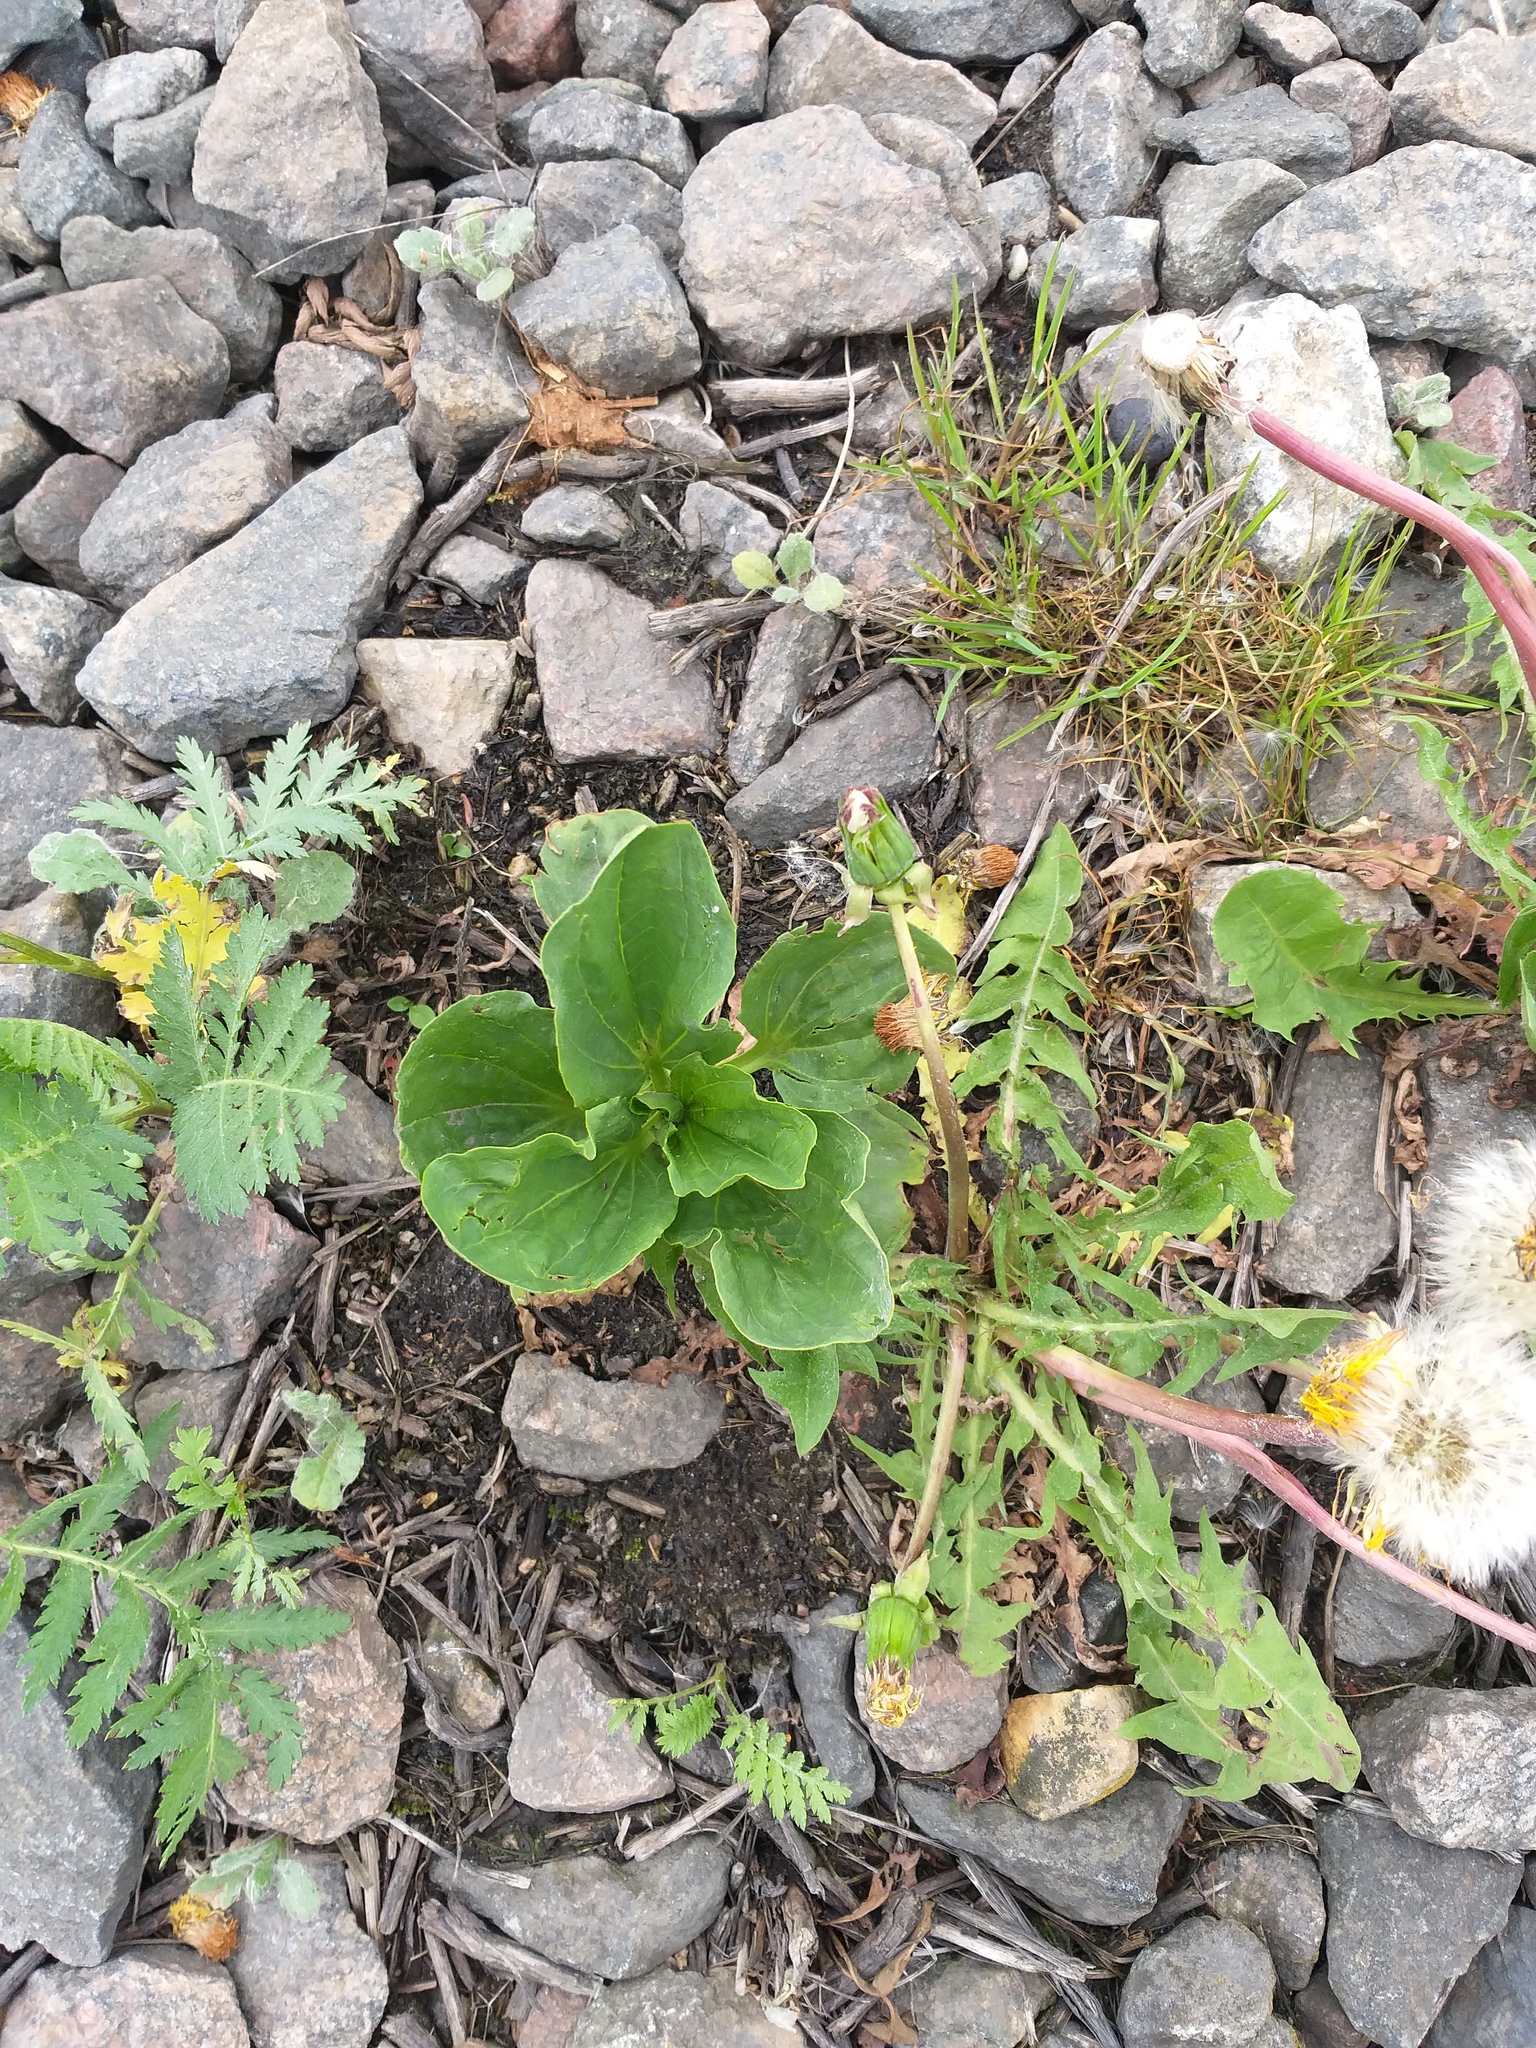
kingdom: Plantae
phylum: Tracheophyta
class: Magnoliopsida
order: Lamiales
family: Plantaginaceae
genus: Plantago
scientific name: Plantago major
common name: Common plantain
